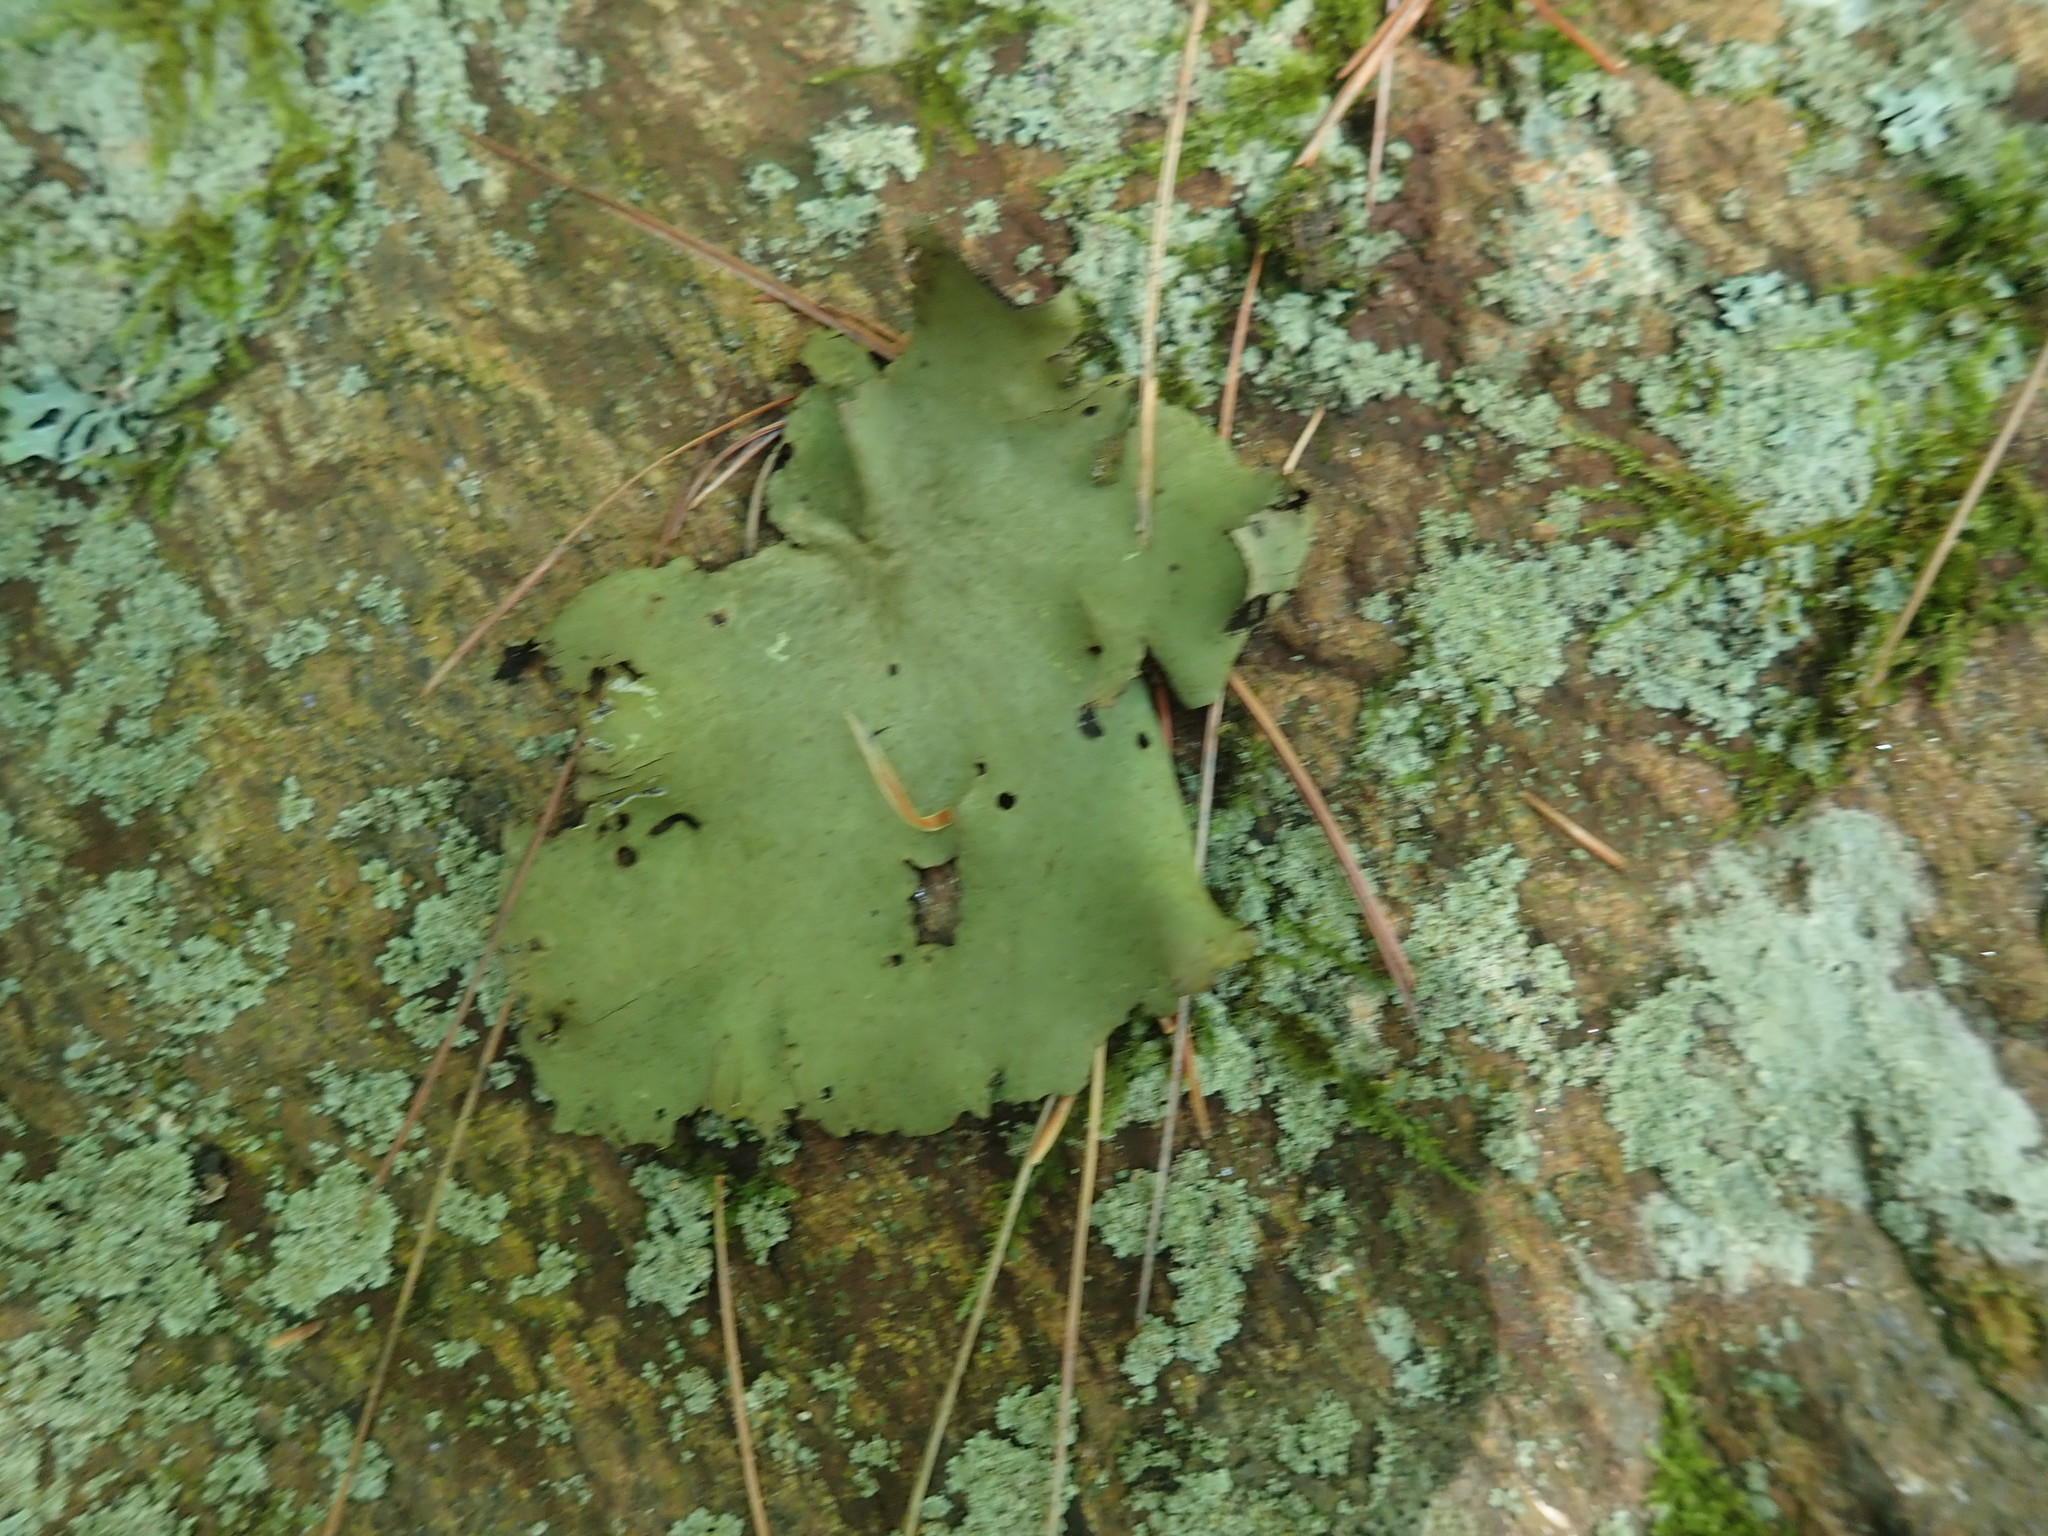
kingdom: Fungi
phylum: Ascomycota
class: Lecanoromycetes
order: Umbilicariales
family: Umbilicariaceae
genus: Umbilicaria
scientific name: Umbilicaria mammulata
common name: Smooth rock tripe
